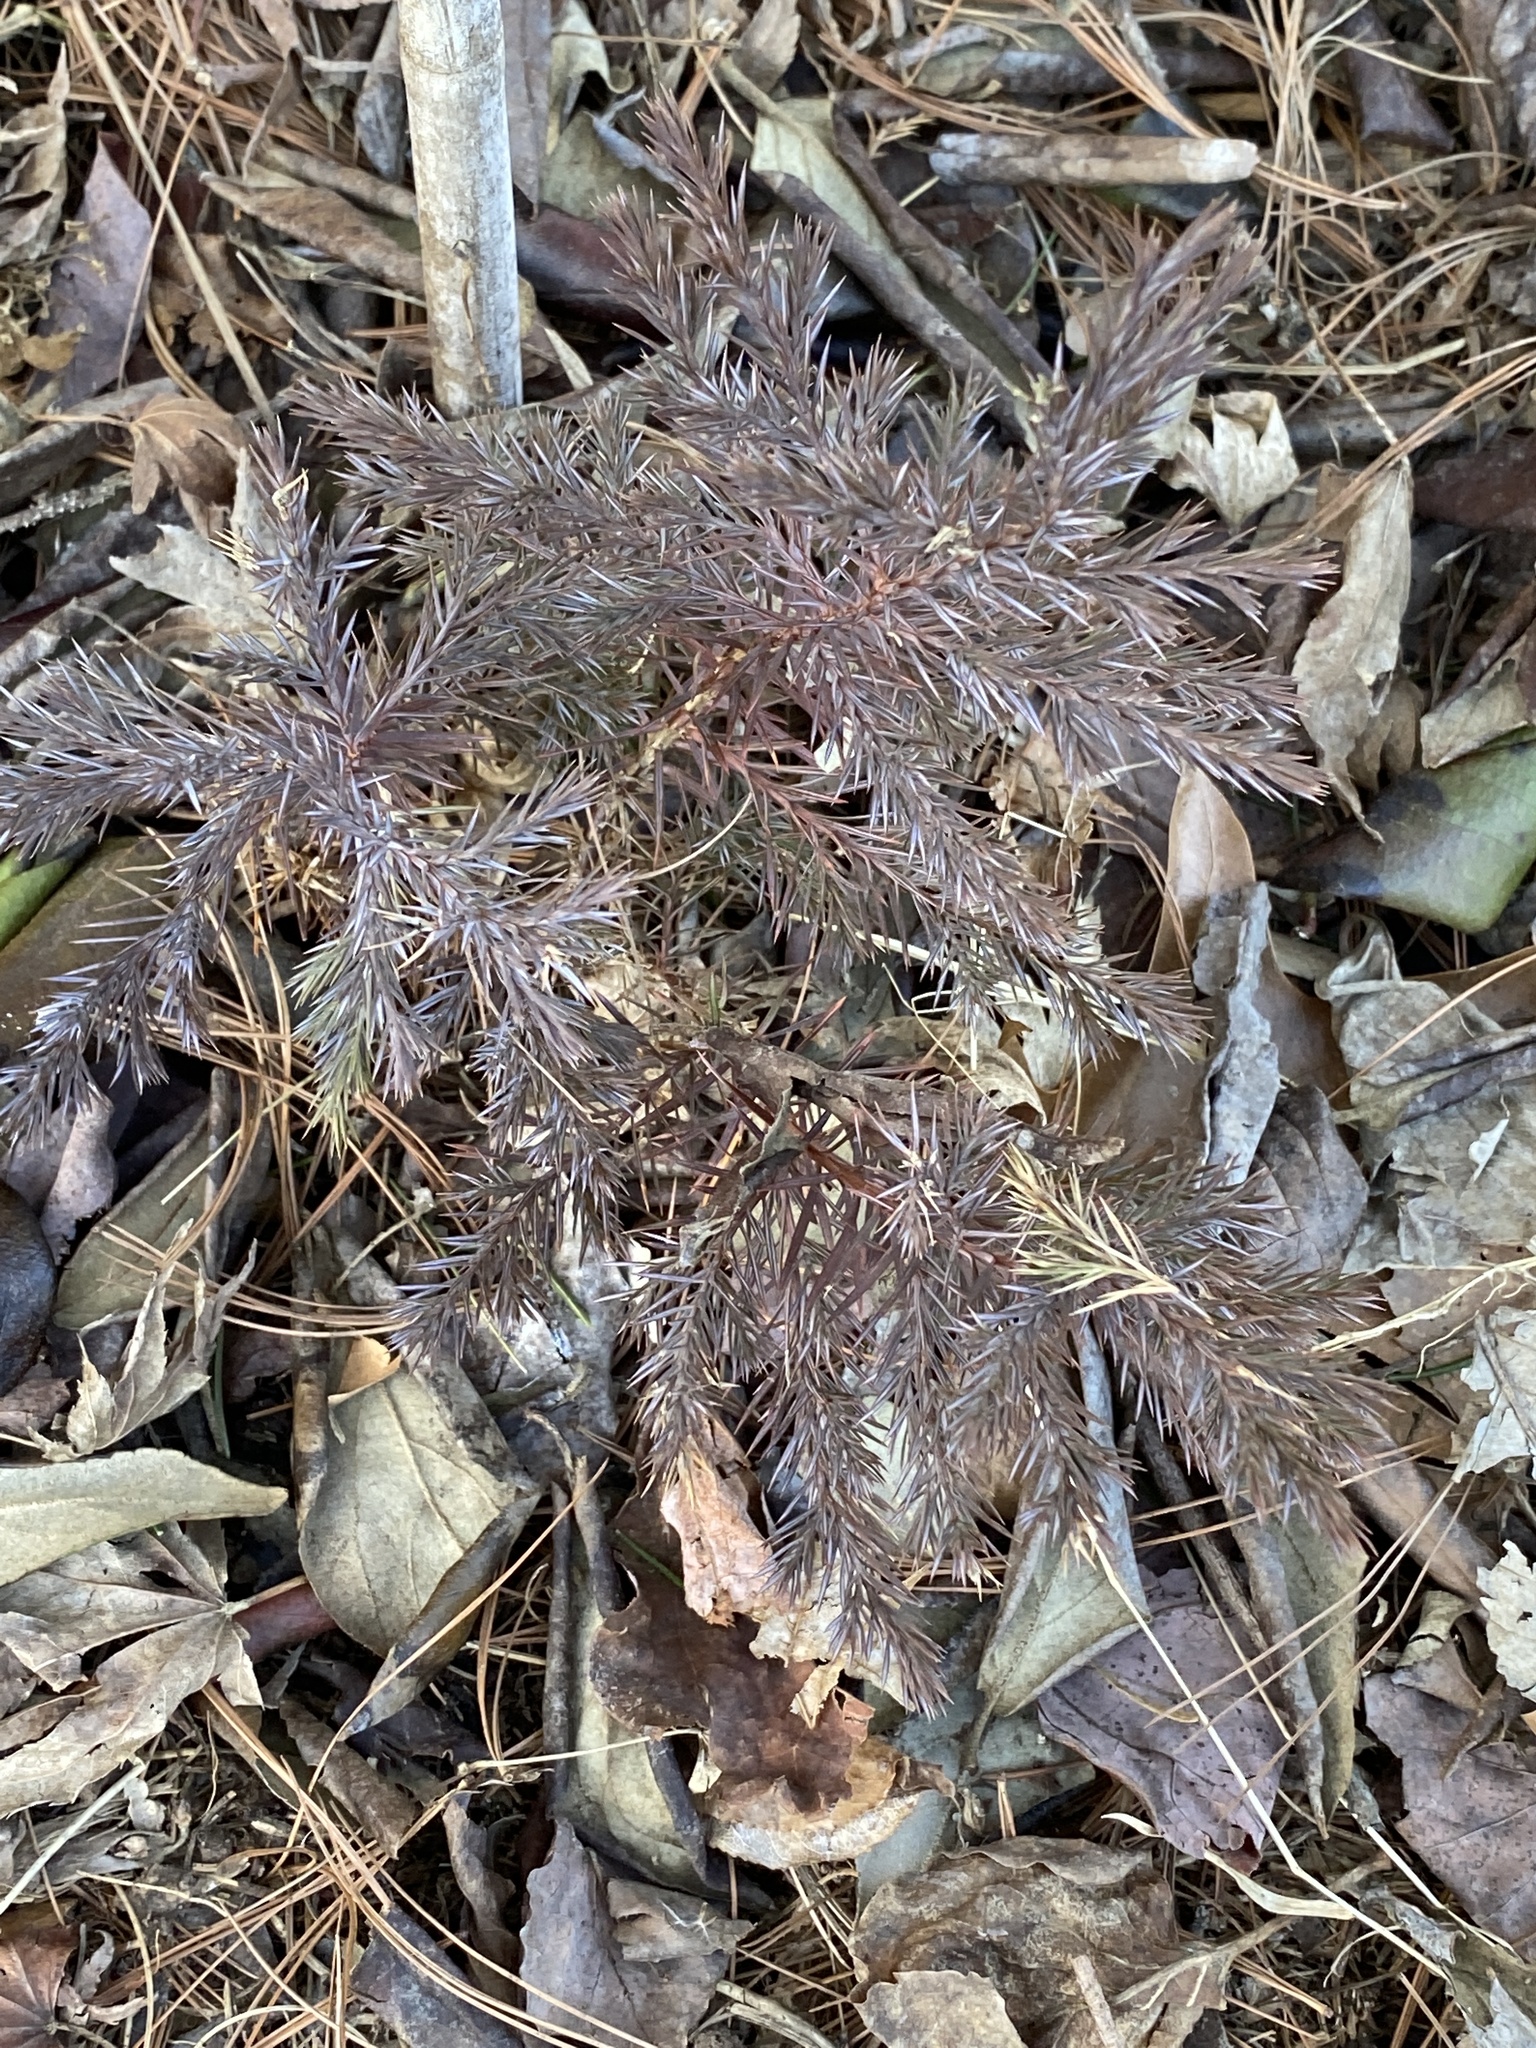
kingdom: Plantae
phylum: Tracheophyta
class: Pinopsida
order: Pinales
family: Cupressaceae
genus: Juniperus
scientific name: Juniperus virginiana
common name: Red juniper
